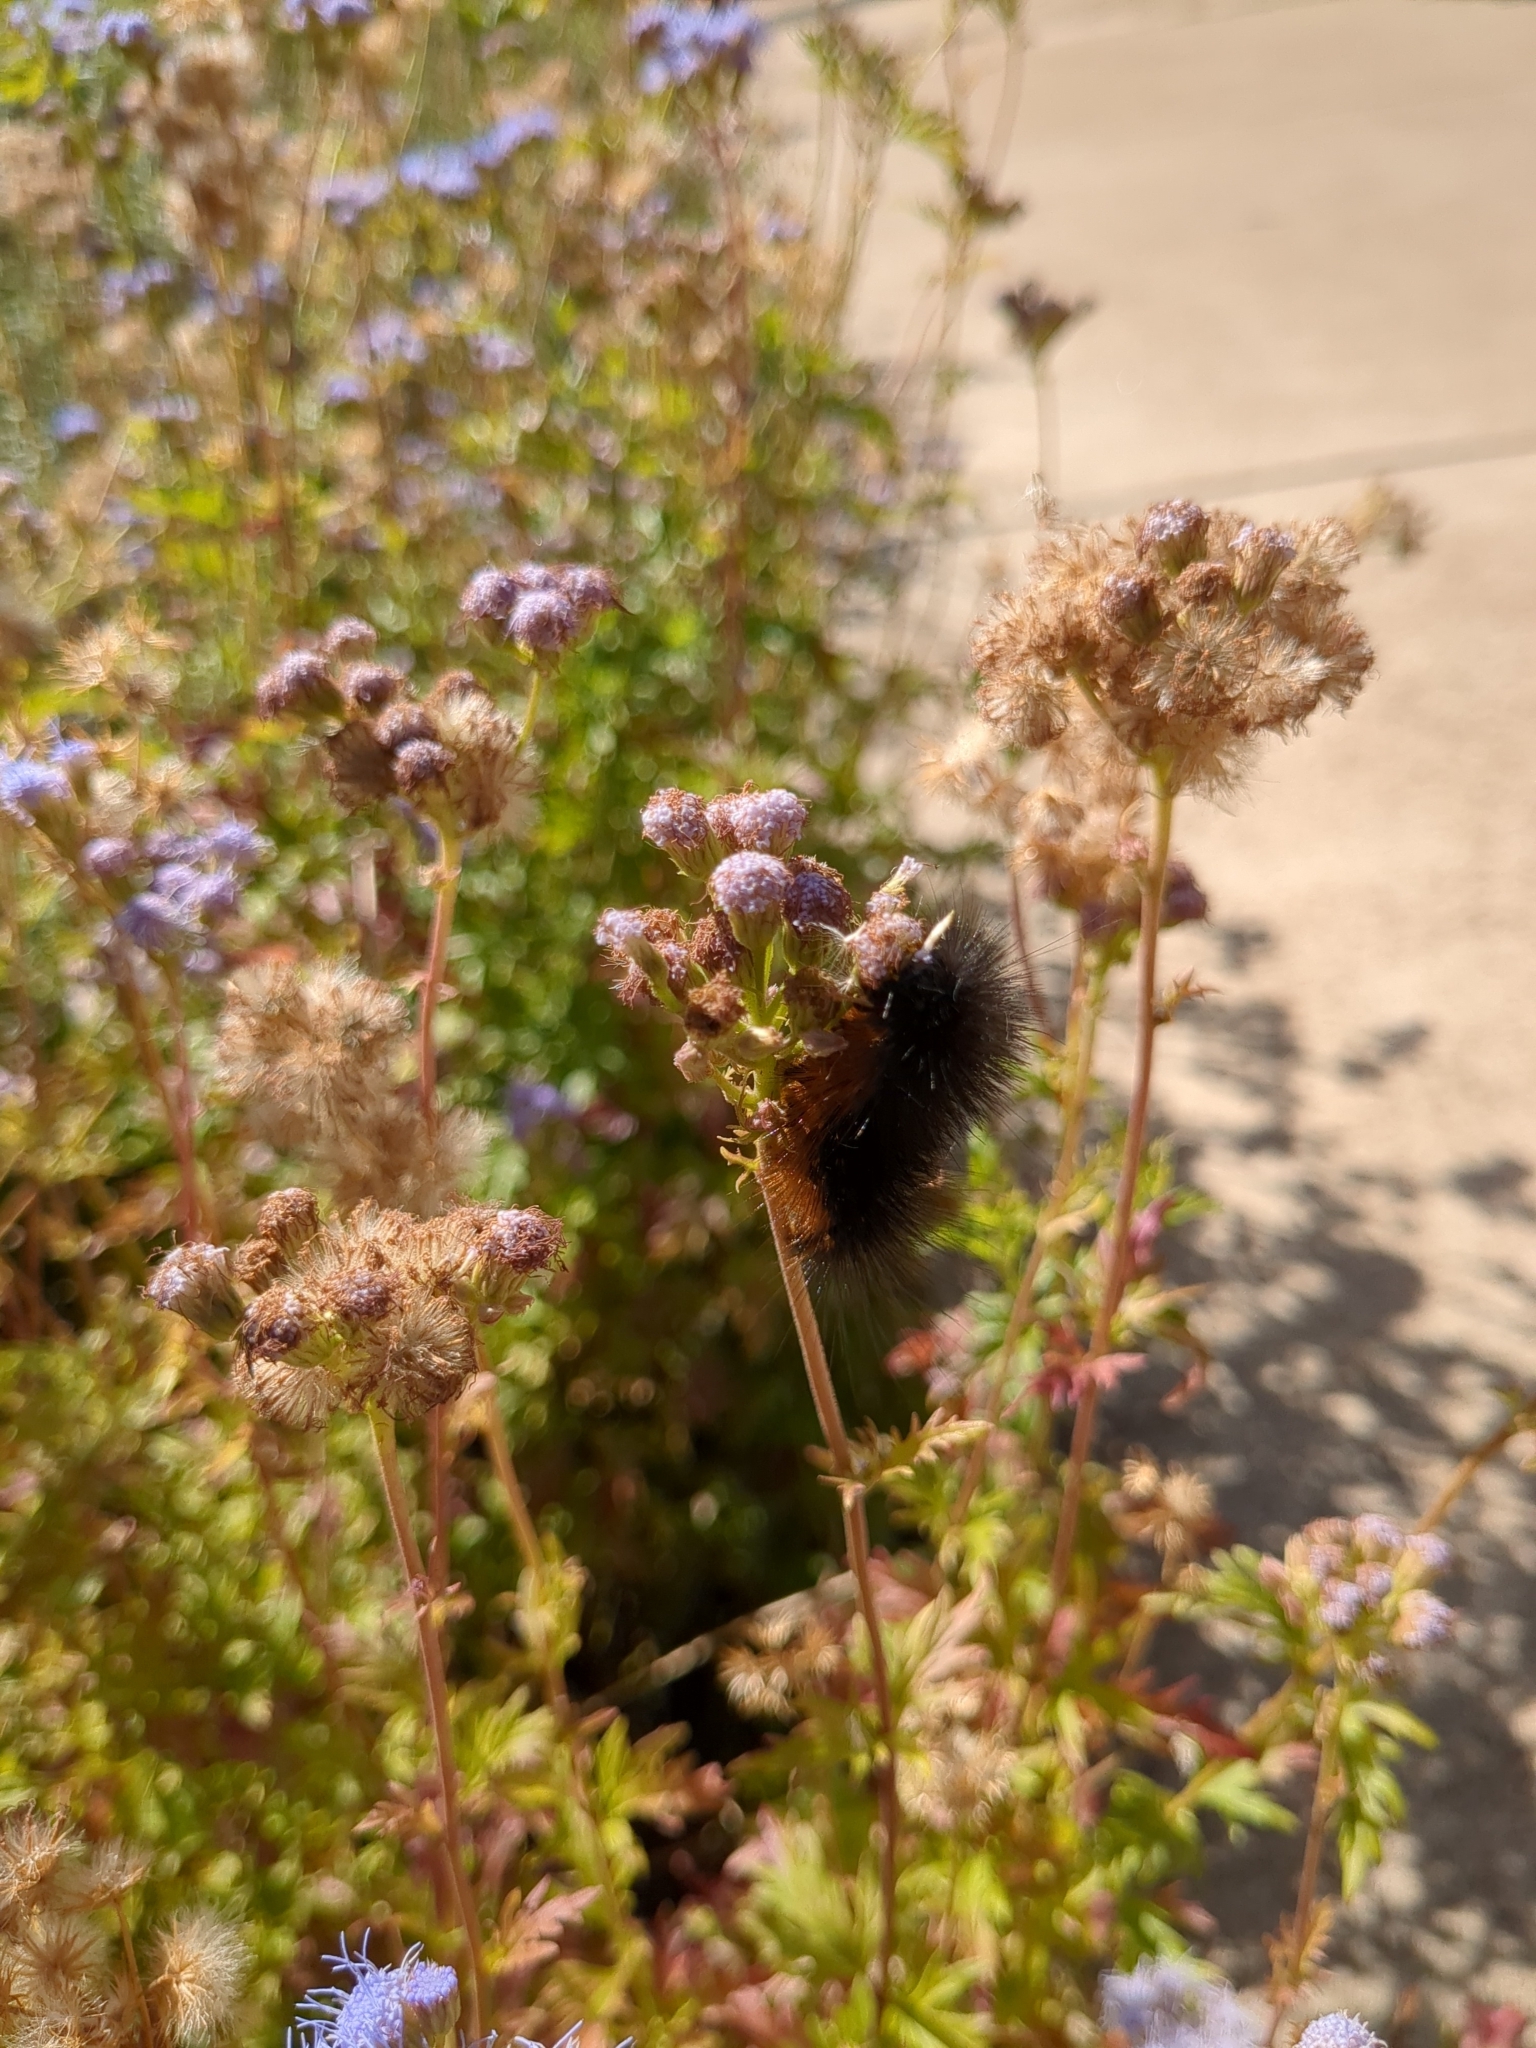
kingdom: Animalia
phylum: Arthropoda
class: Insecta
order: Lepidoptera
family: Erebidae
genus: Estigmene
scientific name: Estigmene acrea
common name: Salt marsh moth
